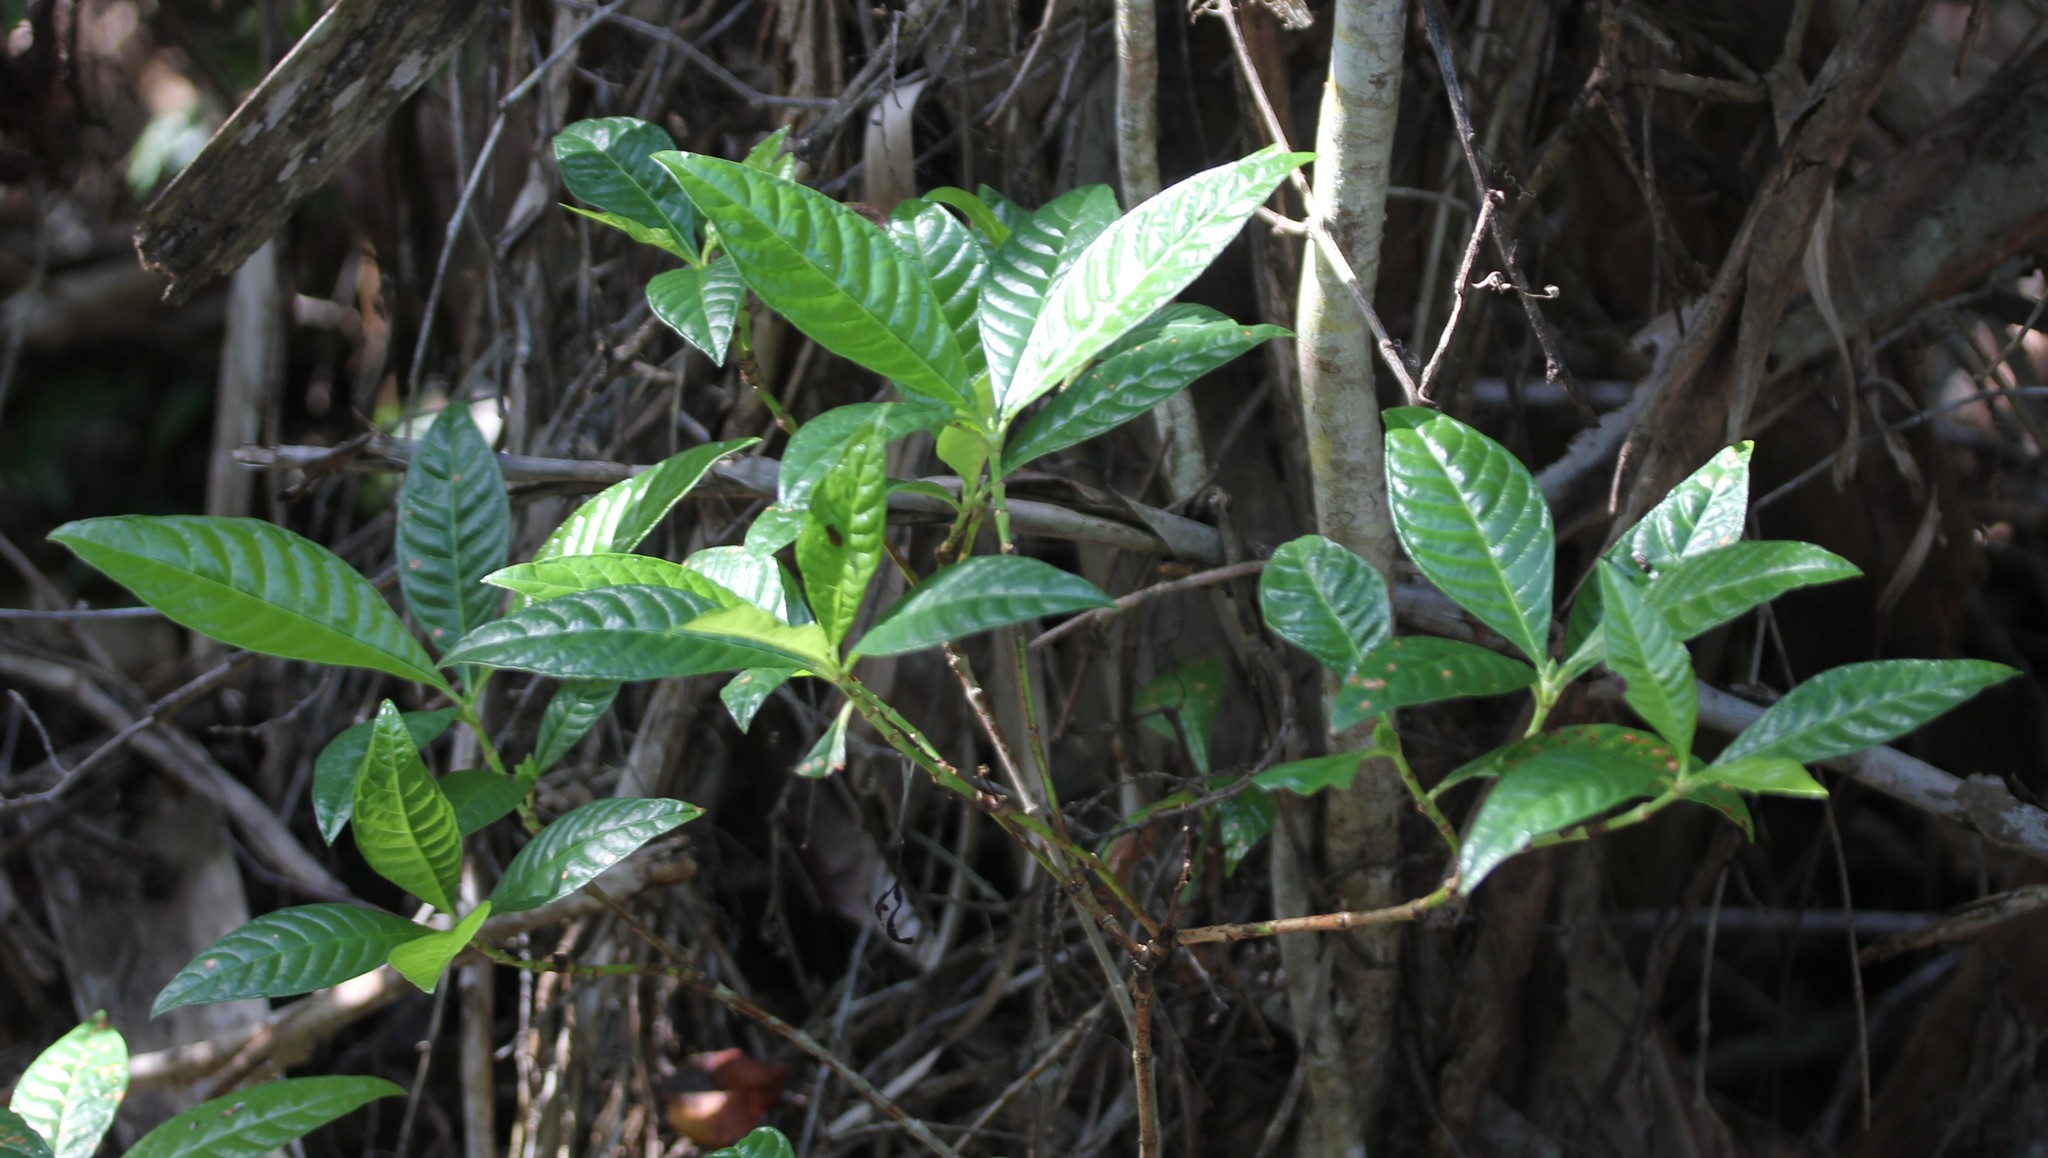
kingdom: Plantae
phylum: Tracheophyta
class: Magnoliopsida
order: Gentianales
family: Rubiaceae
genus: Psychotria
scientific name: Psychotria nervosa
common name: Bastard cankerberry
